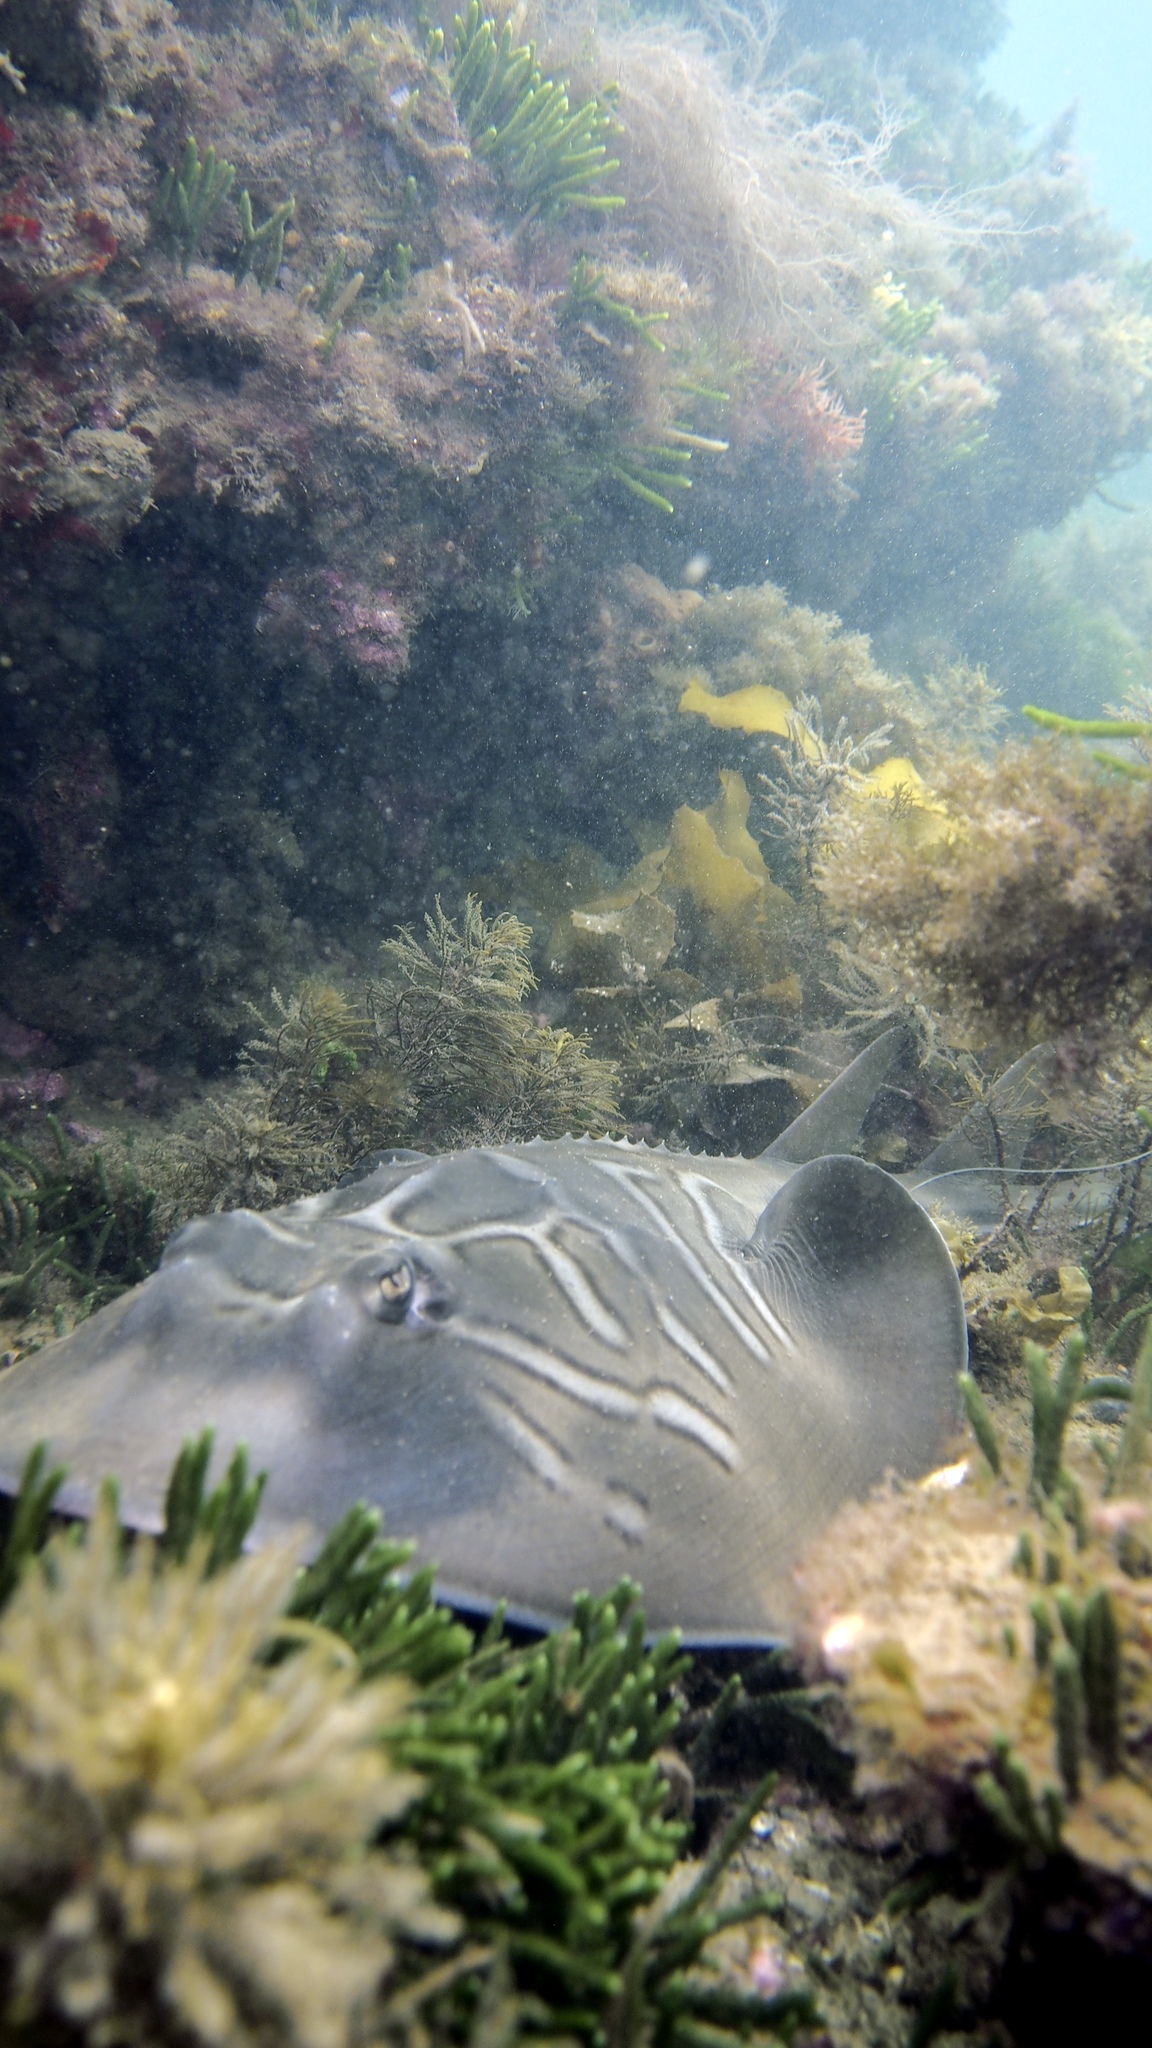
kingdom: Animalia
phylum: Chordata
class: Elasmobranchii
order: Rhinopristiformes
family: Rhinobatidae
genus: Trygonorrhina
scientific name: Trygonorrhina dumerilii
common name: Banjo shark
